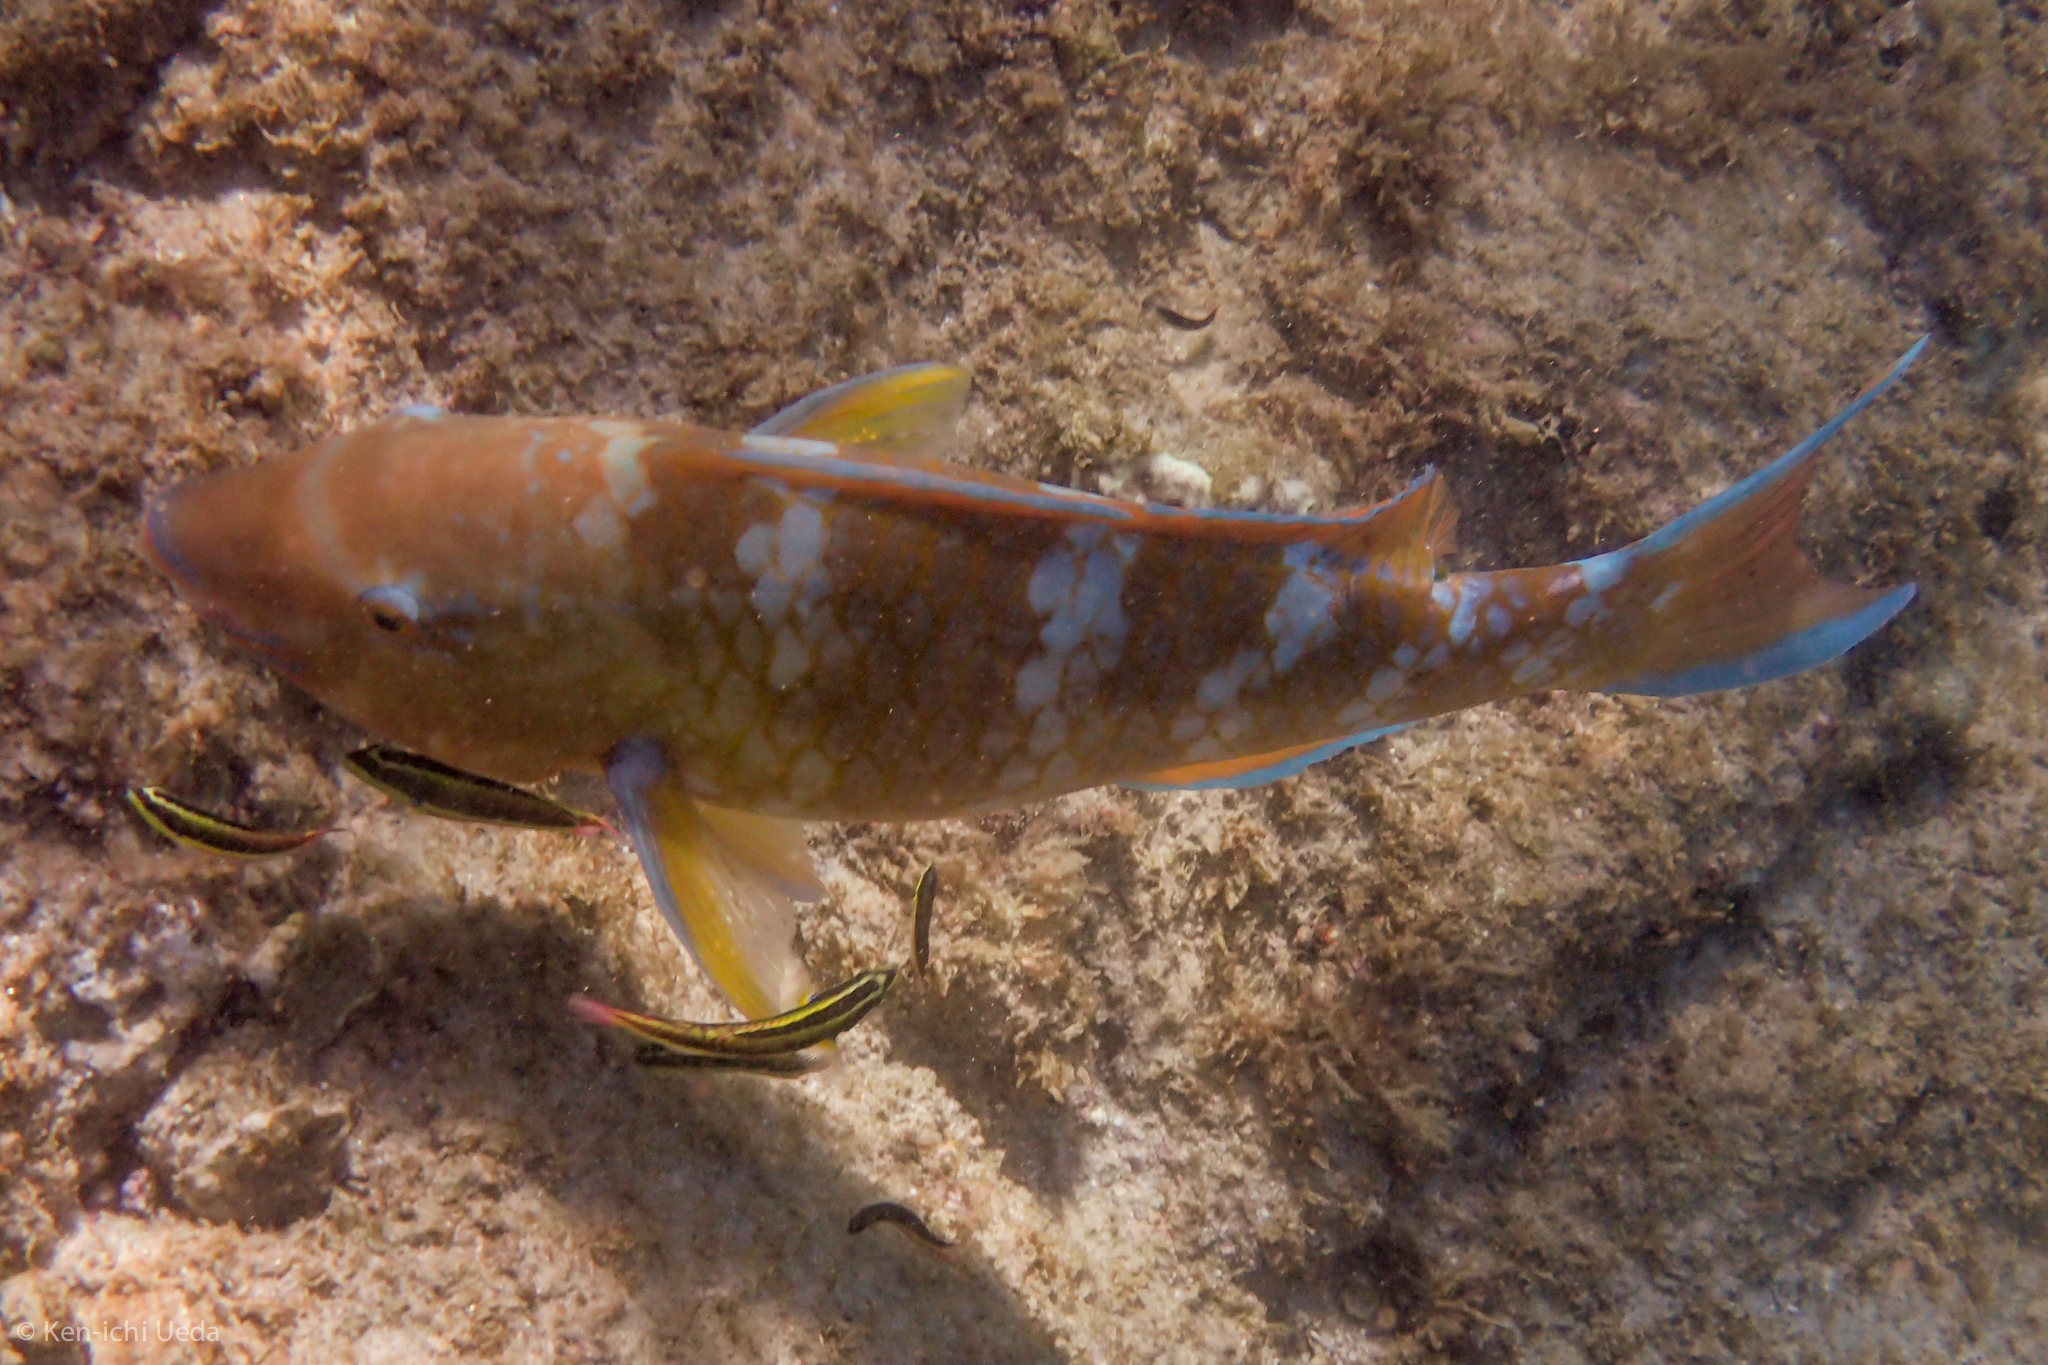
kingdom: Animalia
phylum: Chordata
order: Perciformes
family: Scaridae
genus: Scarus
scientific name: Scarus ghobban
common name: Blue-barred parrotfish
